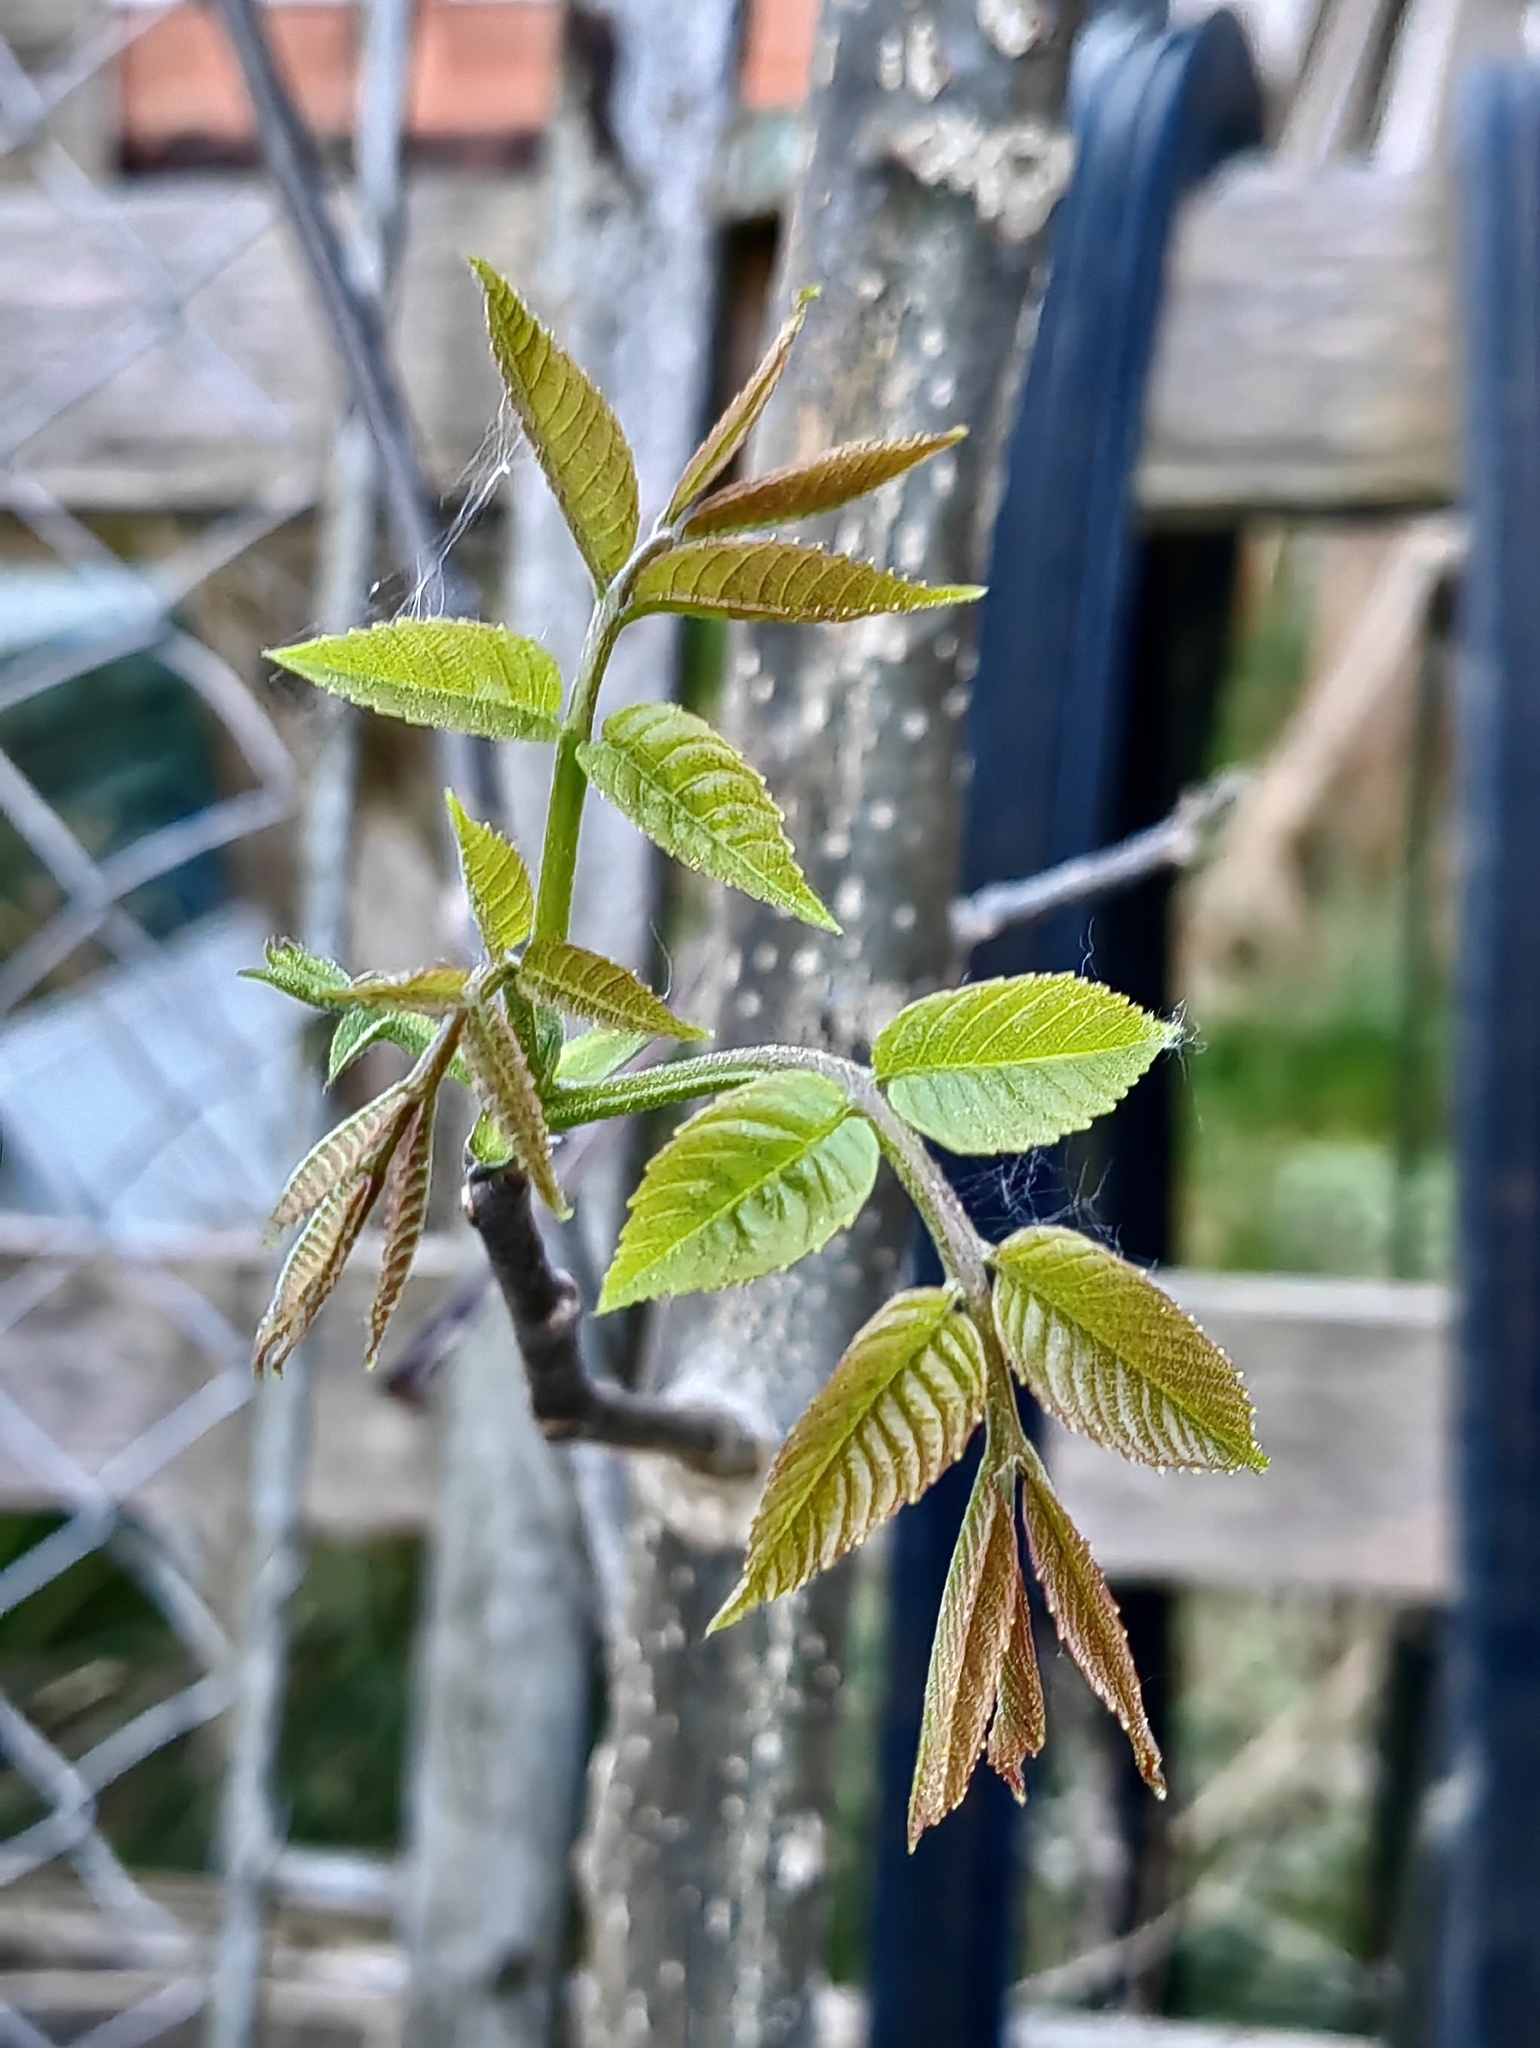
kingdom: Plantae
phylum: Tracheophyta
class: Magnoliopsida
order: Fagales
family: Juglandaceae
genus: Juglans
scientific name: Juglans regia
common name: Walnut
